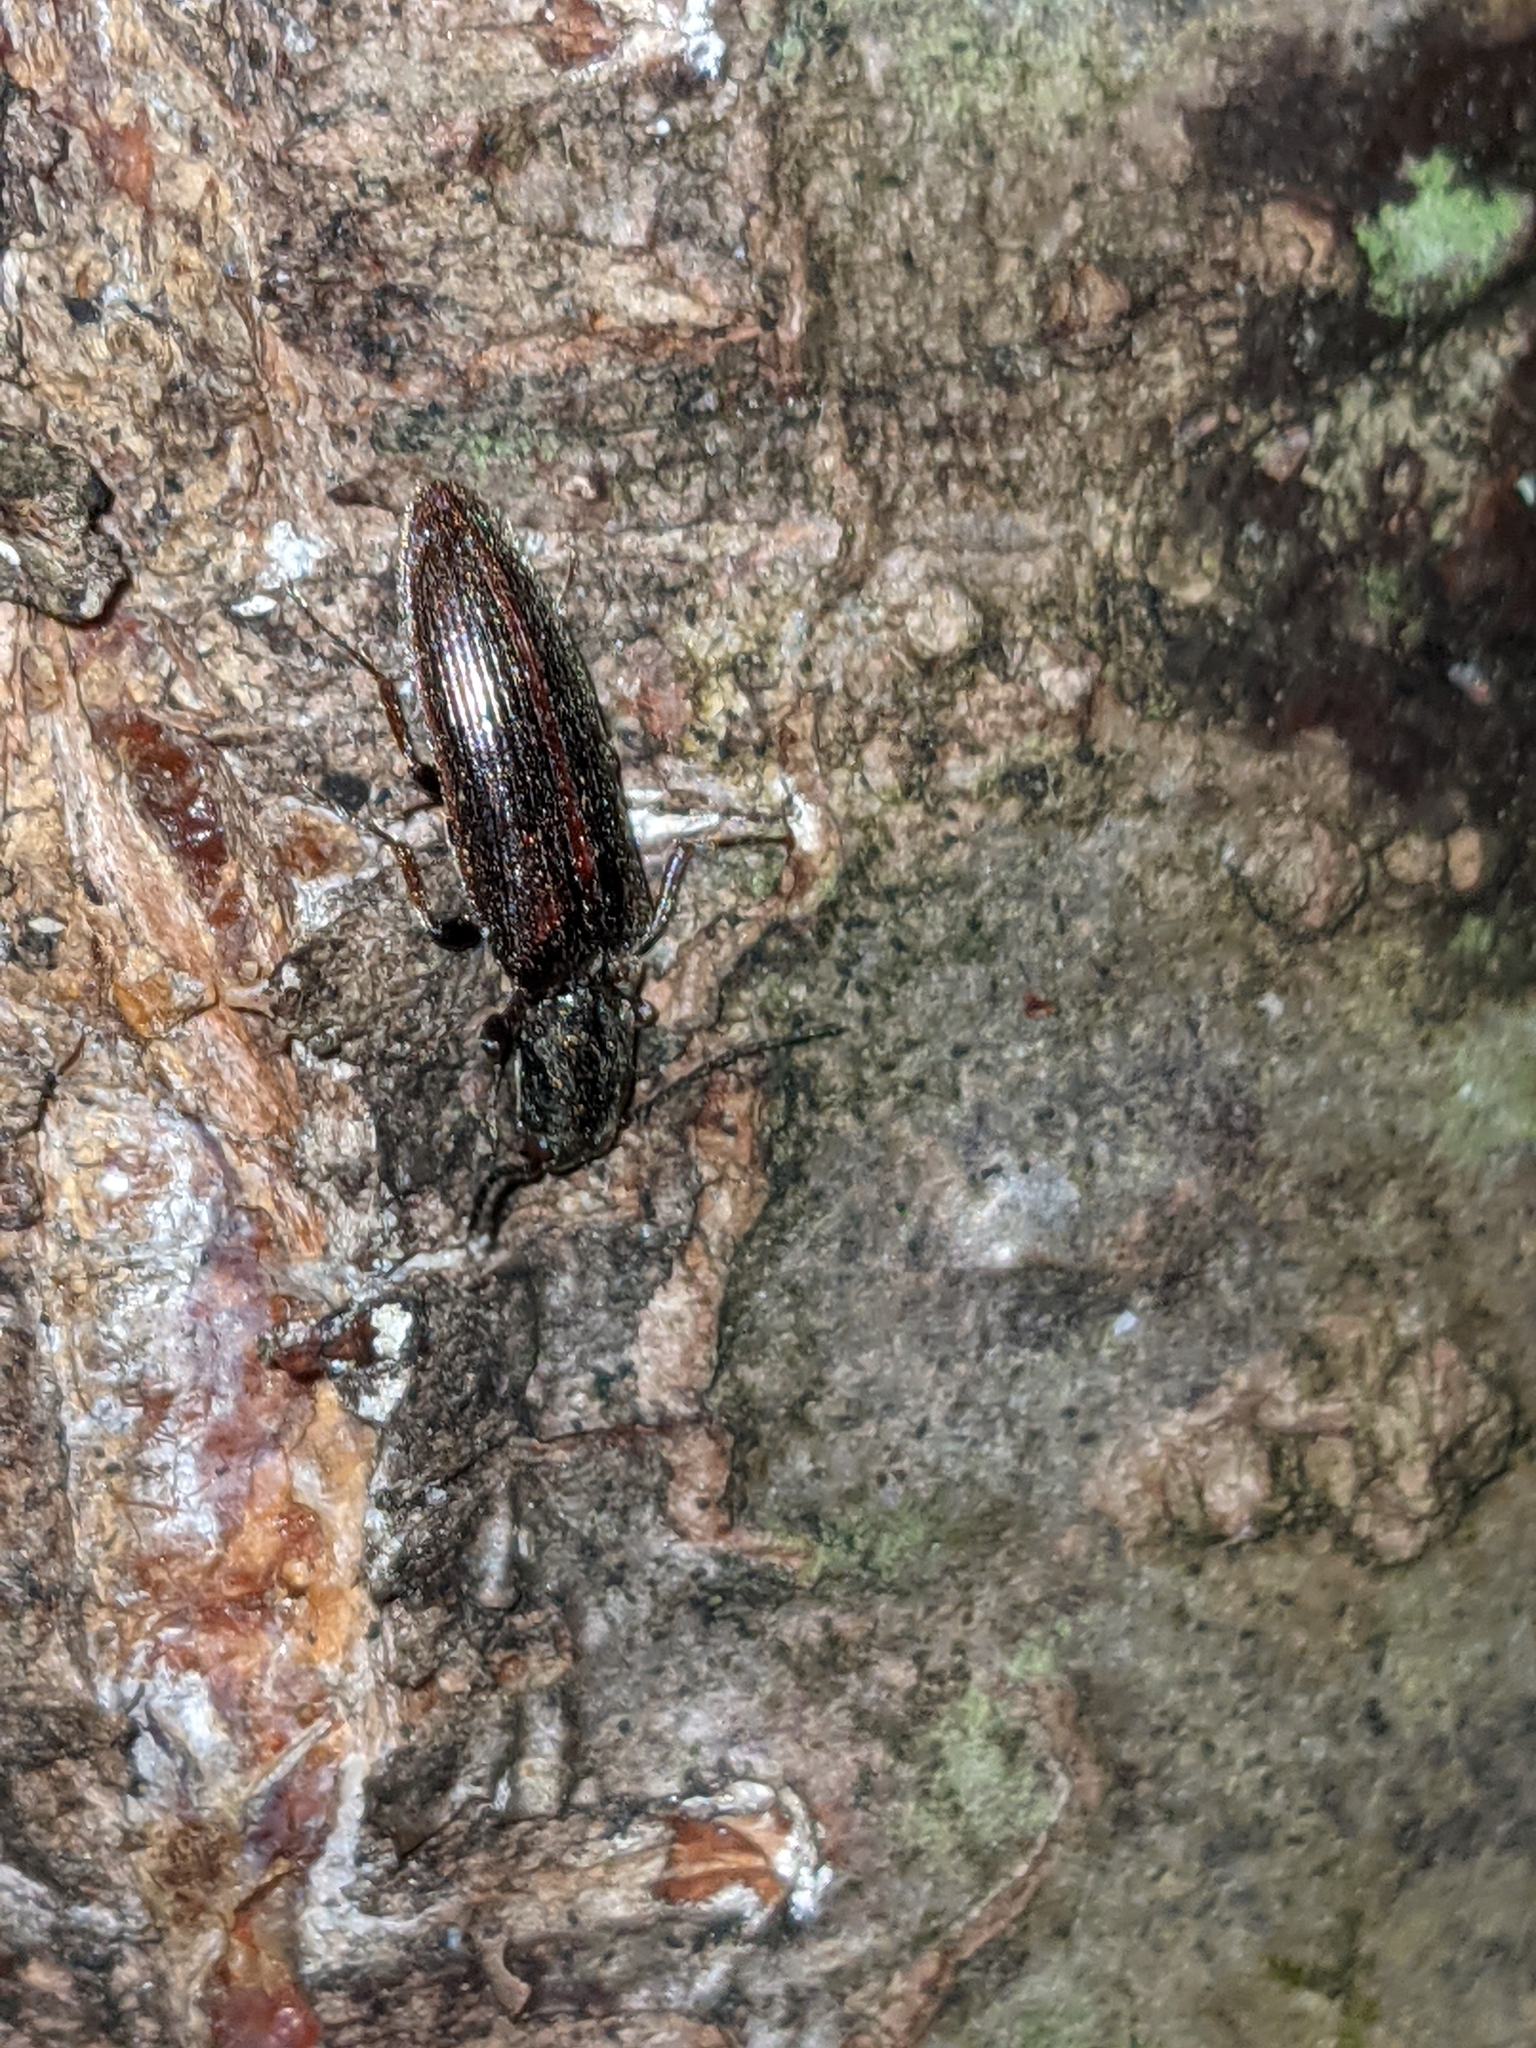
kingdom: Animalia
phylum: Arthropoda
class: Insecta
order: Coleoptera
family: Elateridae
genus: Sylvanelater
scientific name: Sylvanelater cylindriformis
